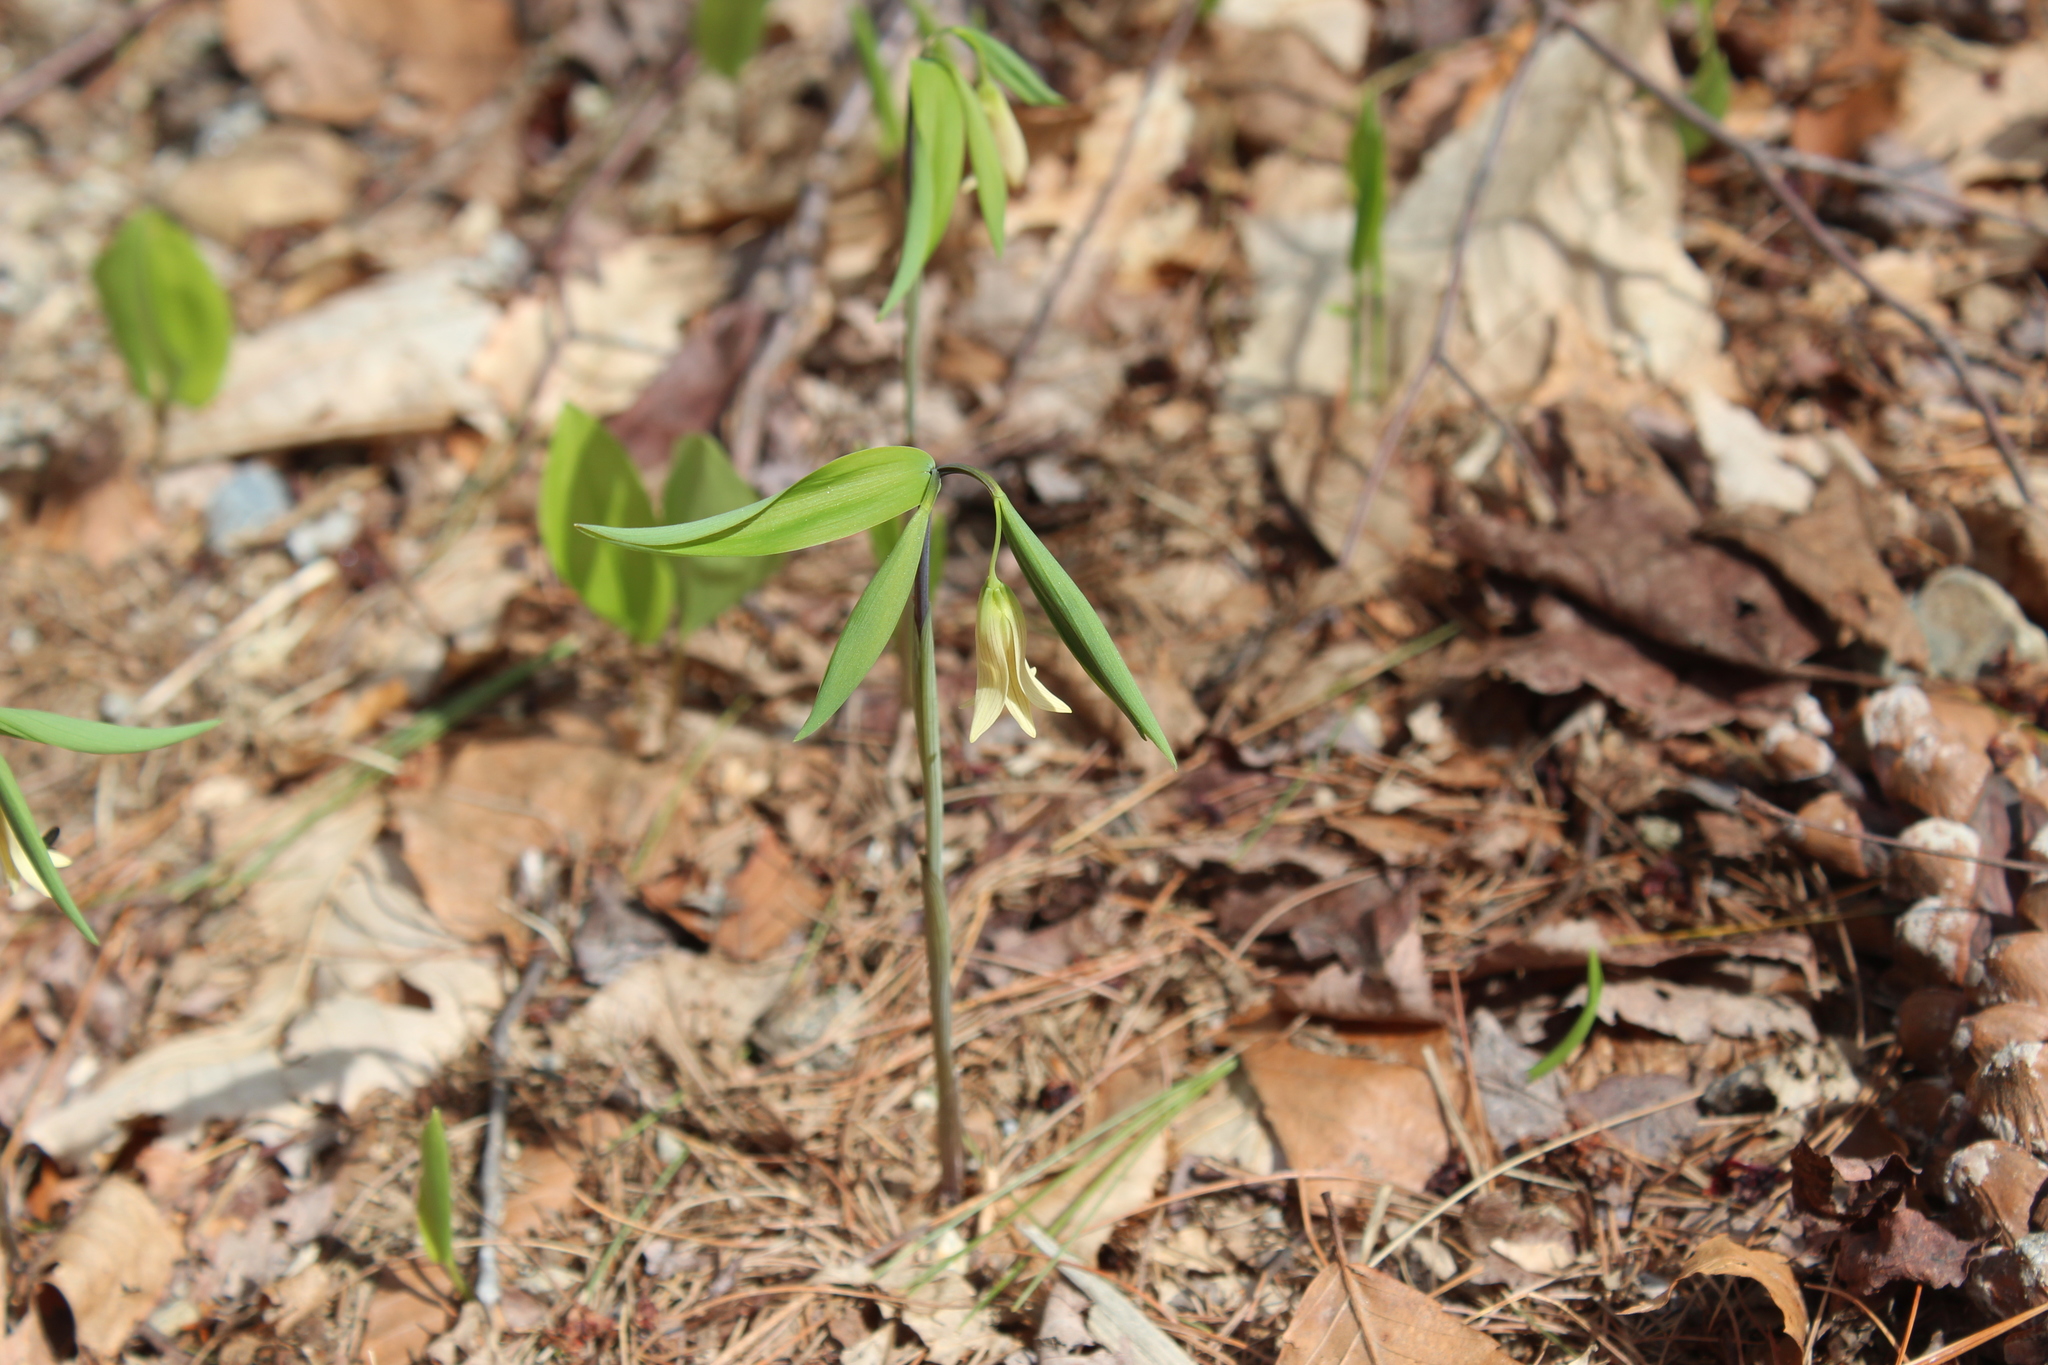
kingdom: Plantae
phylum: Tracheophyta
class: Liliopsida
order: Liliales
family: Colchicaceae
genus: Uvularia
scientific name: Uvularia sessilifolia
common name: Straw-lily
